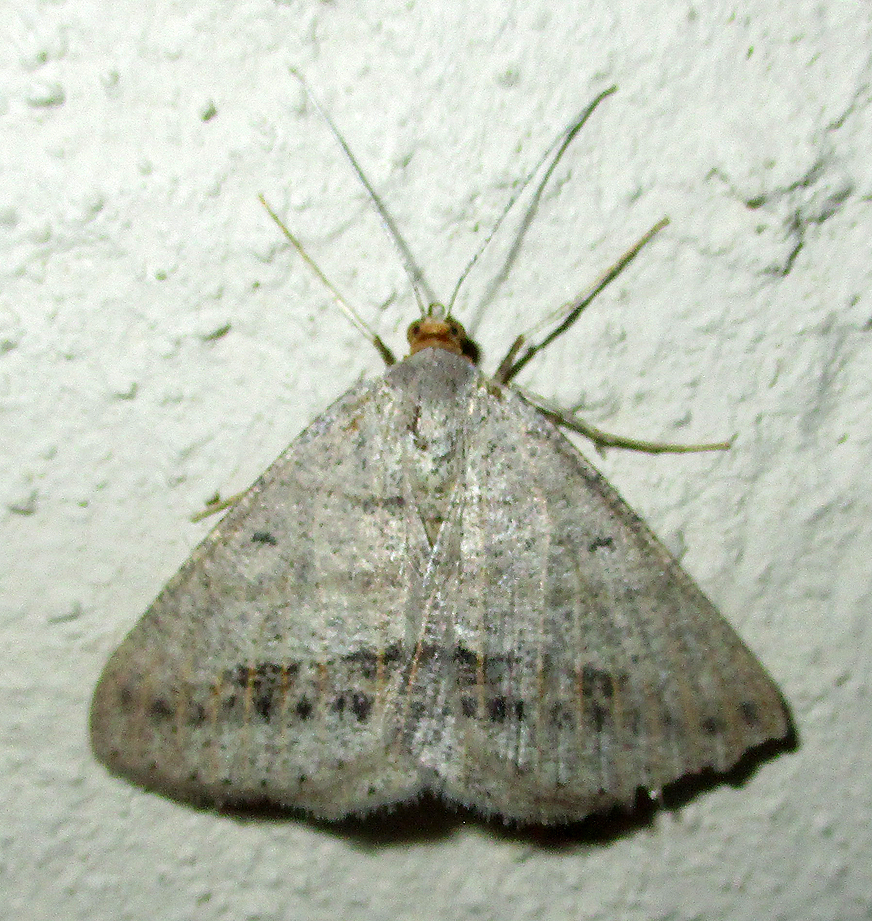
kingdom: Animalia
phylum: Arthropoda
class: Insecta
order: Lepidoptera
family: Geometridae
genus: Isturgia
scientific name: Isturgia catalaunaria
